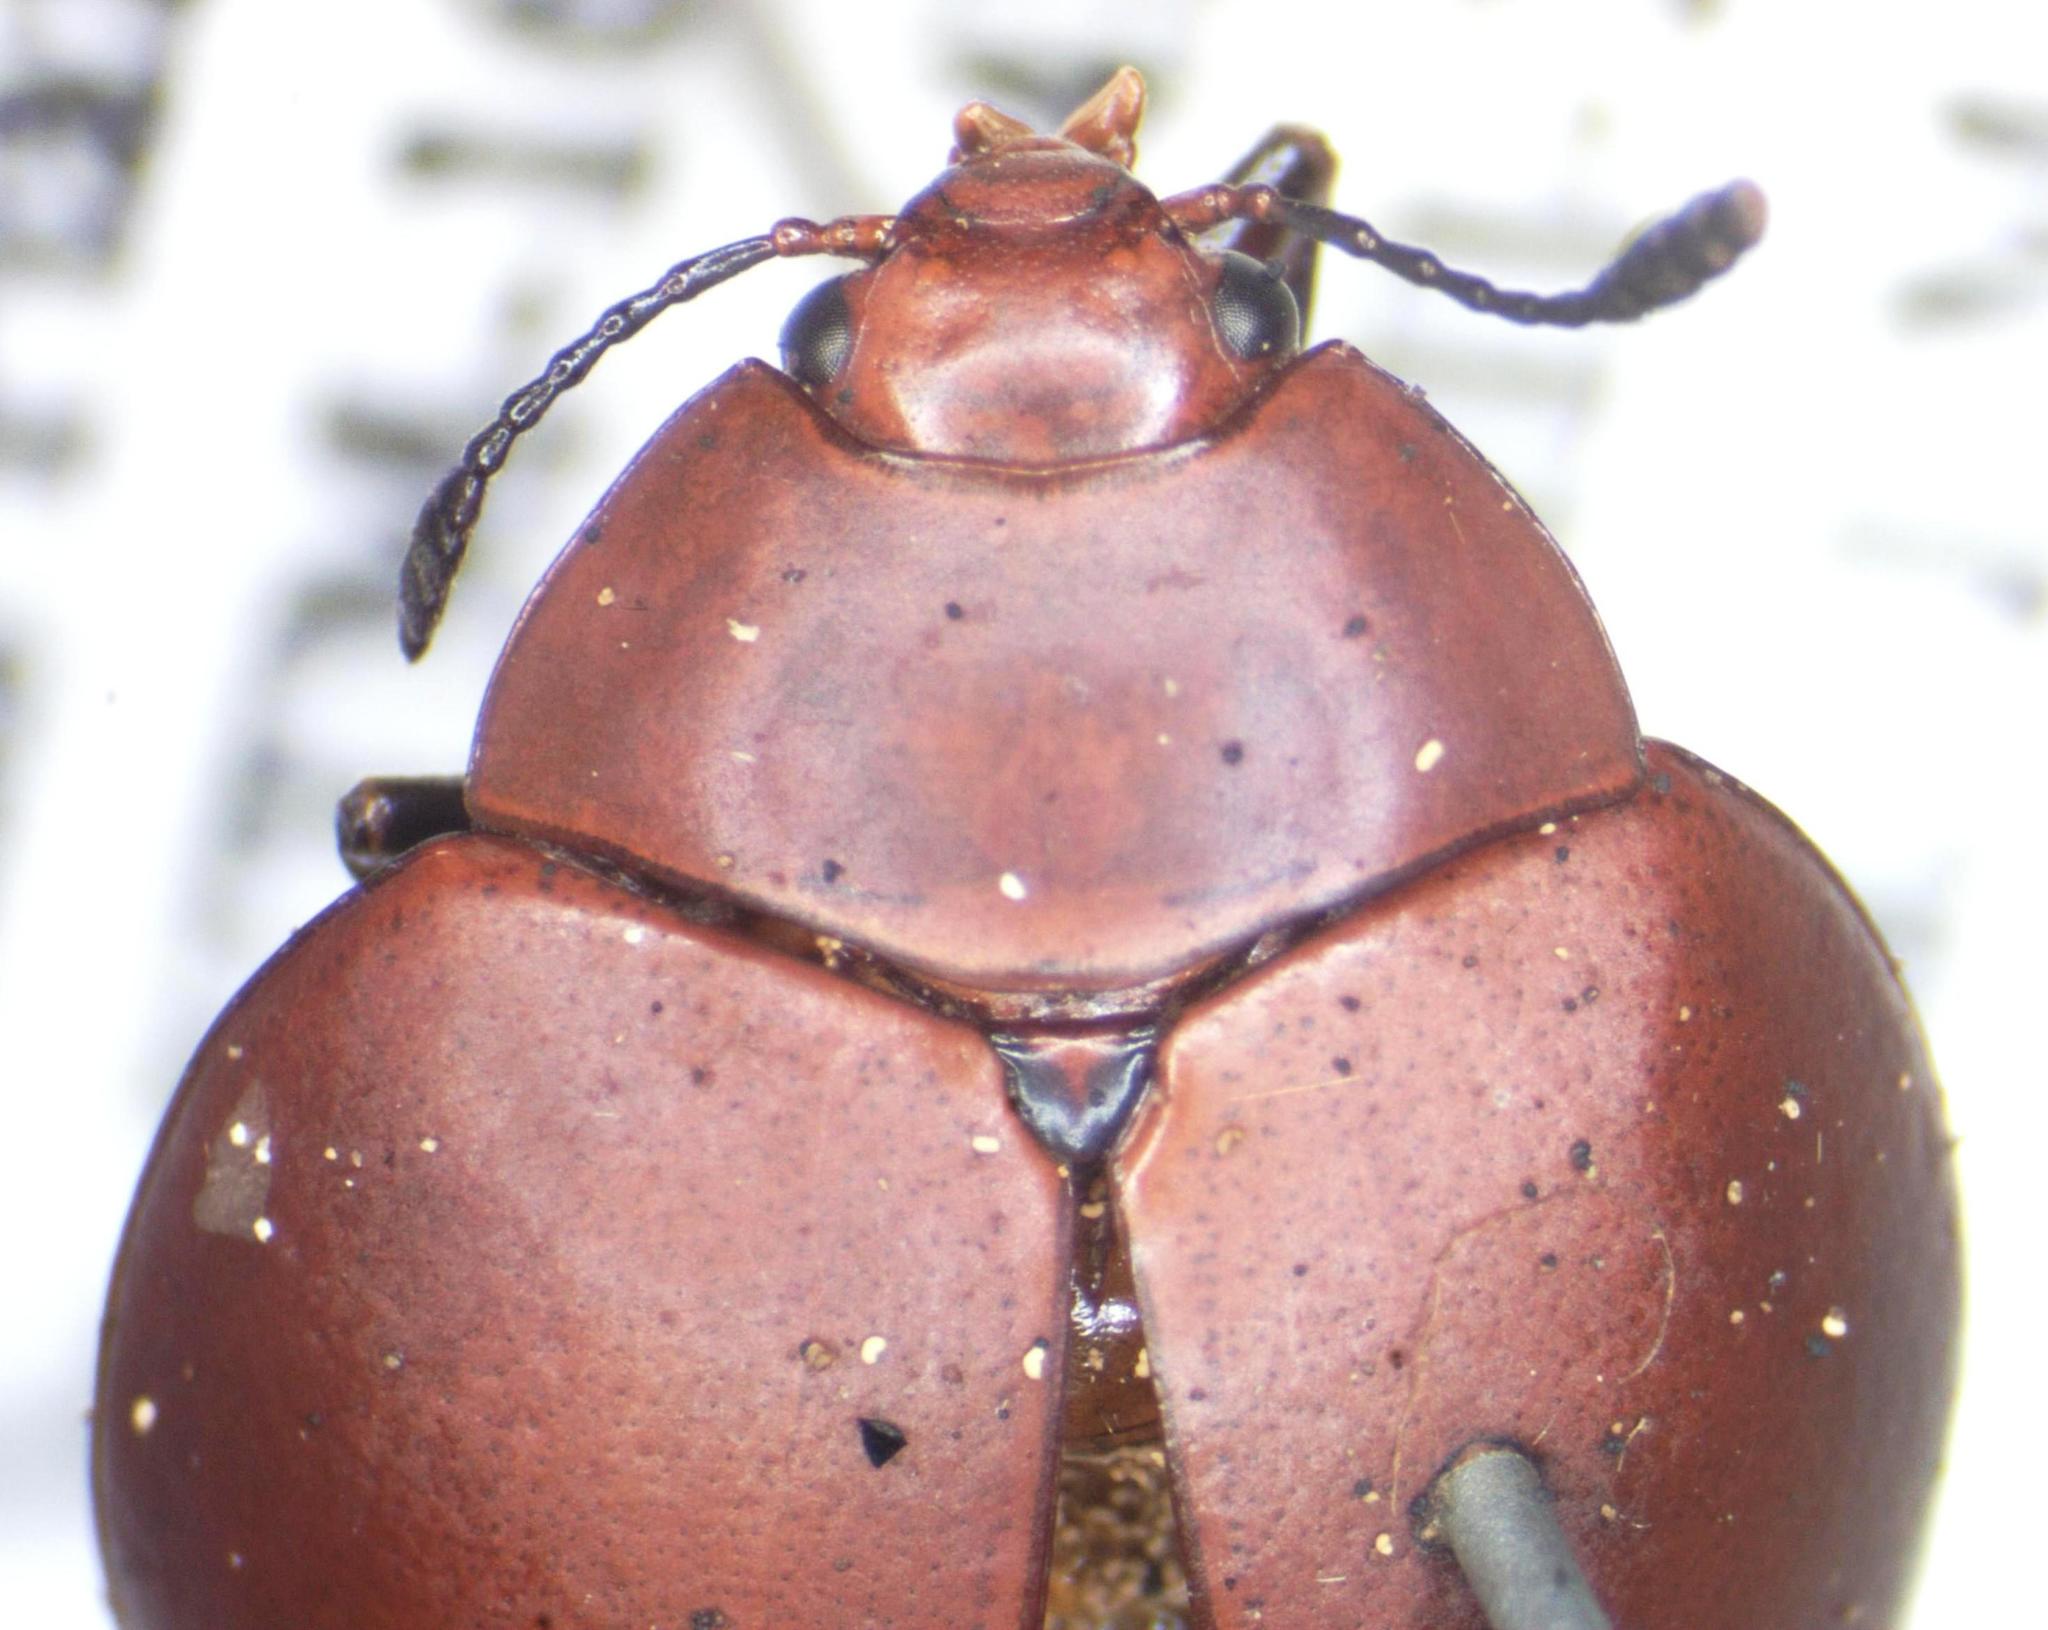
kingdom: Animalia
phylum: Arthropoda
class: Insecta
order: Coleoptera
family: Erotylidae
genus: Aegithus
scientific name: Aegithus
